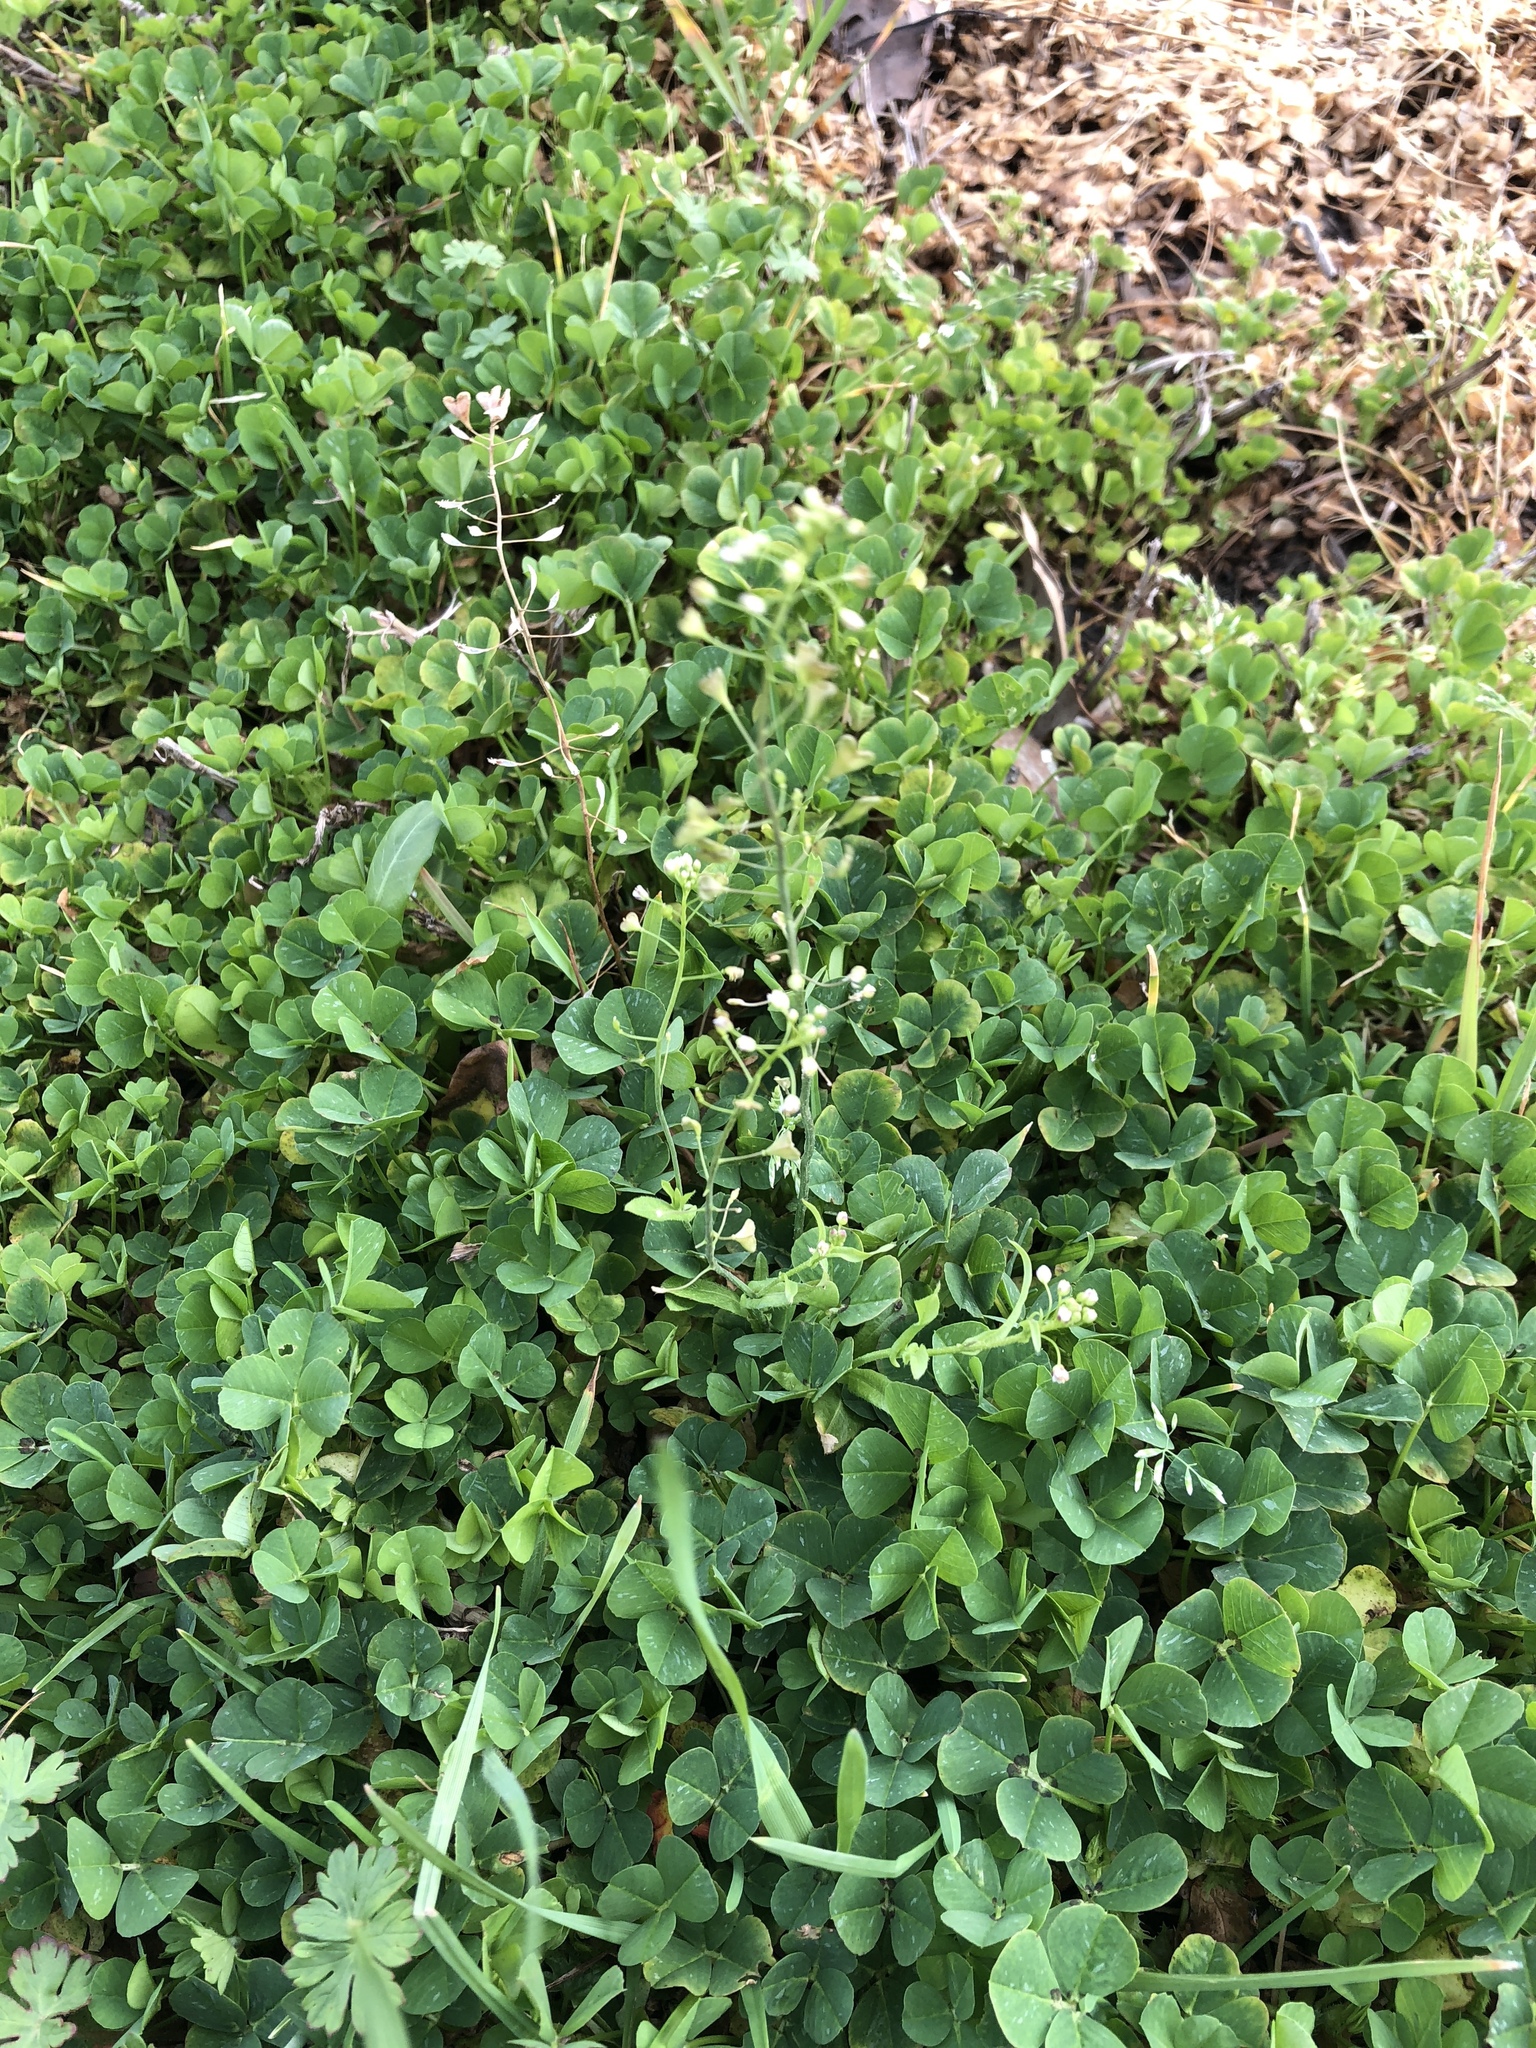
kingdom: Plantae
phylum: Tracheophyta
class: Magnoliopsida
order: Brassicales
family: Brassicaceae
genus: Capsella
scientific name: Capsella bursa-pastoris
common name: Shepherd's purse
